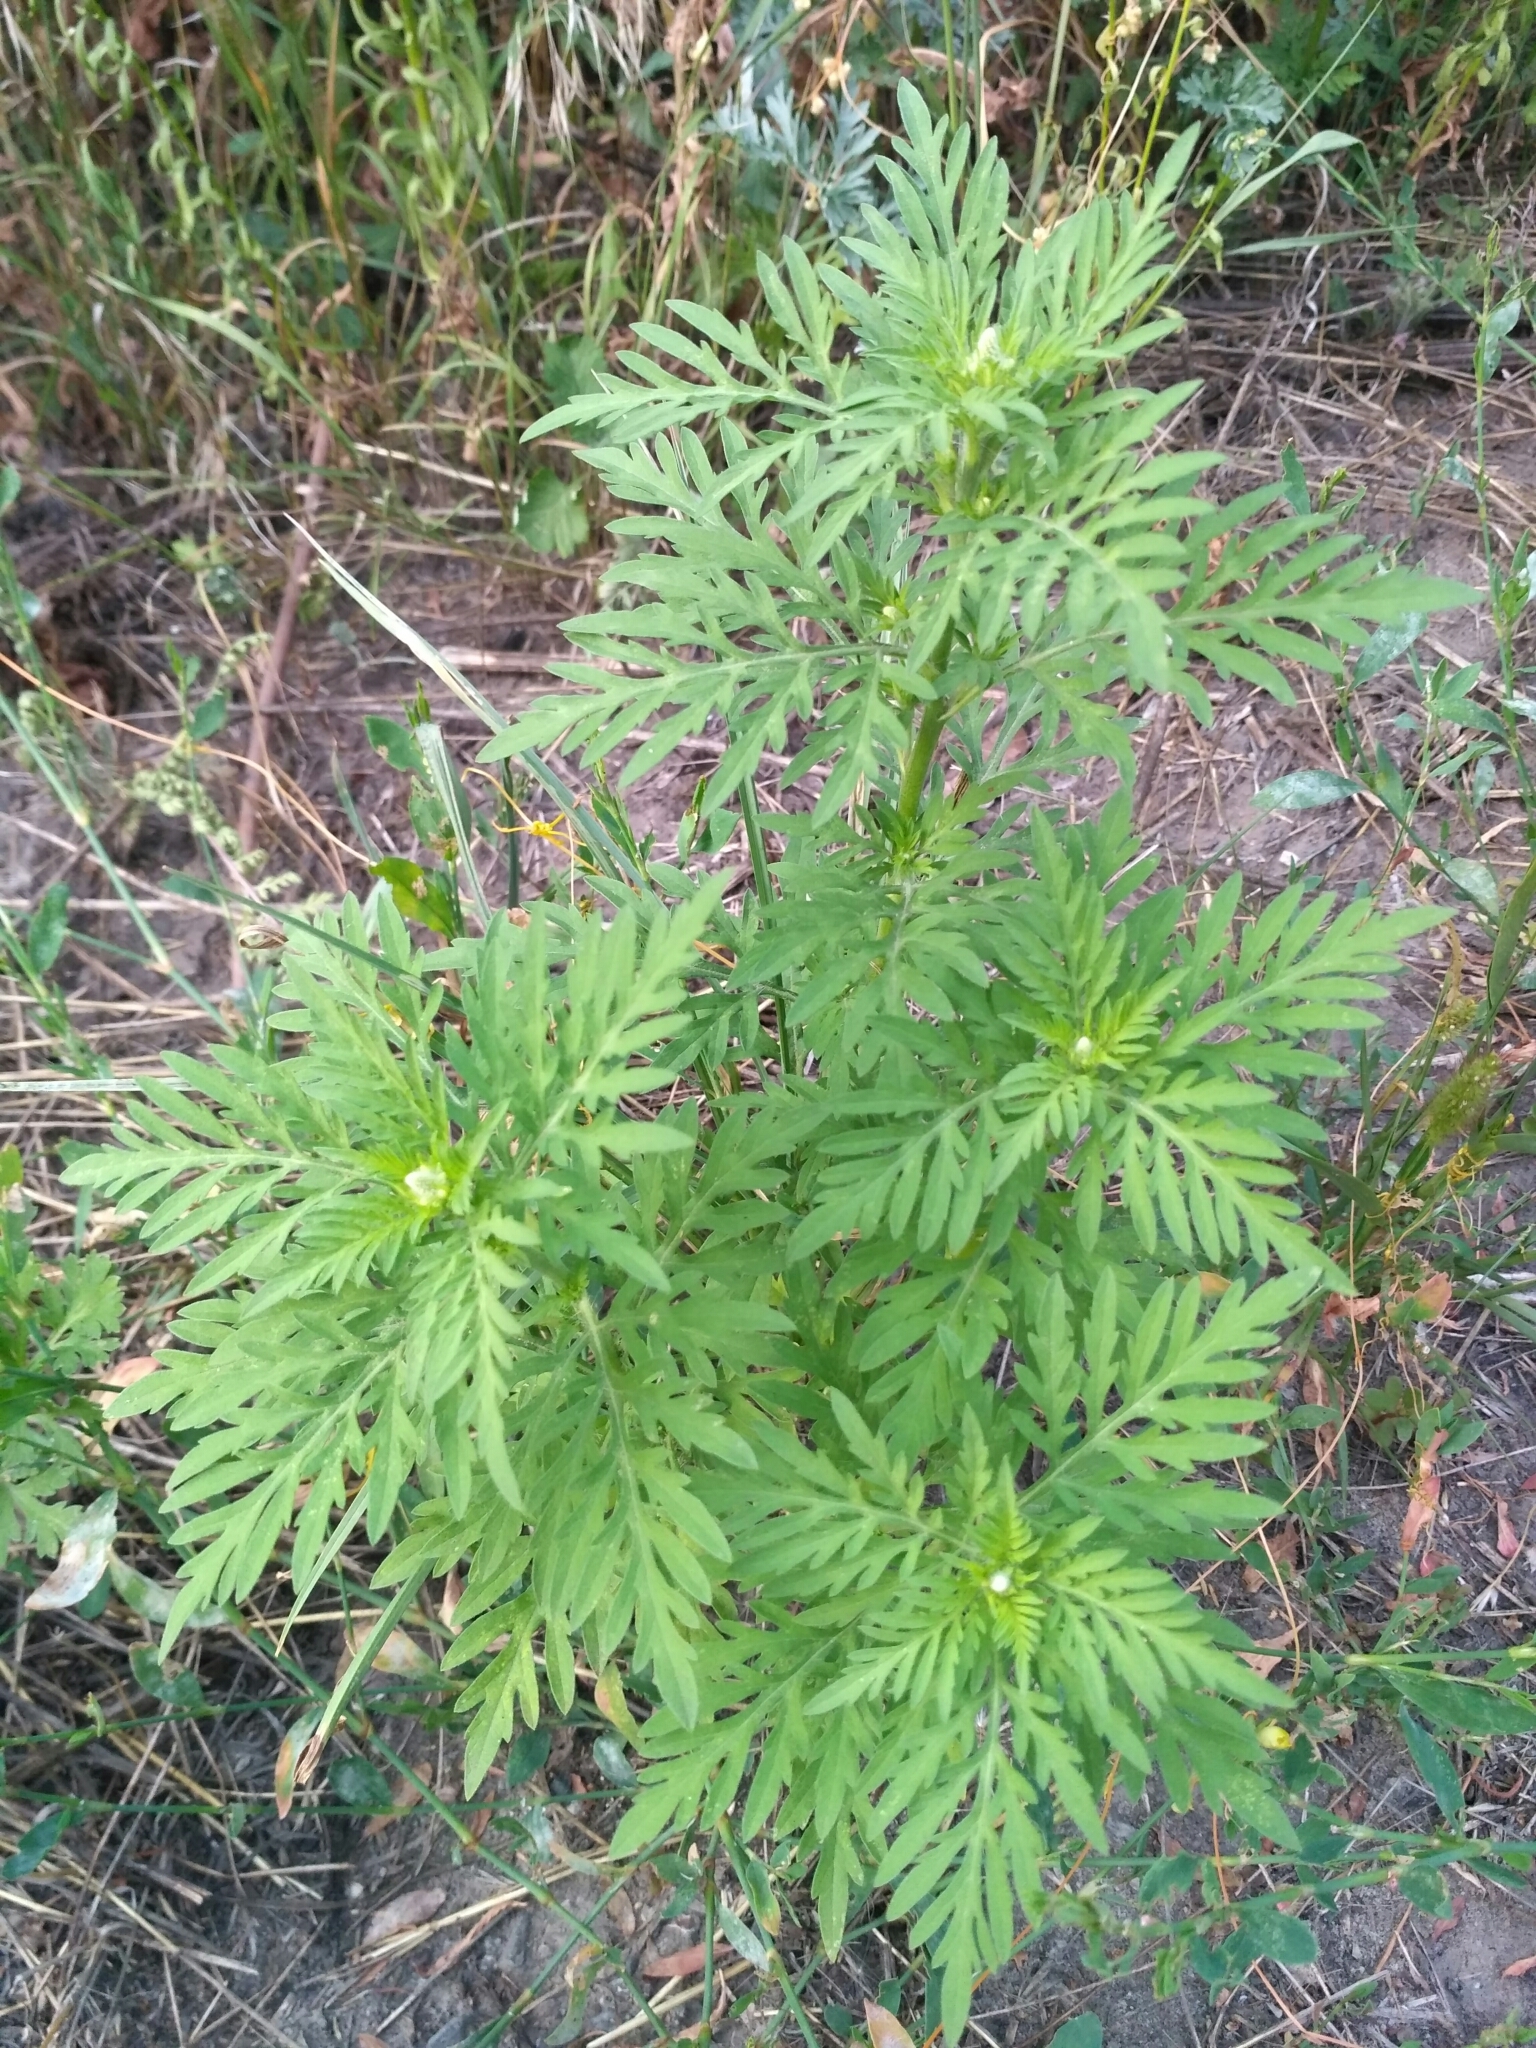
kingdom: Plantae
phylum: Tracheophyta
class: Magnoliopsida
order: Asterales
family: Asteraceae
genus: Ambrosia
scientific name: Ambrosia artemisiifolia
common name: Annual ragweed
